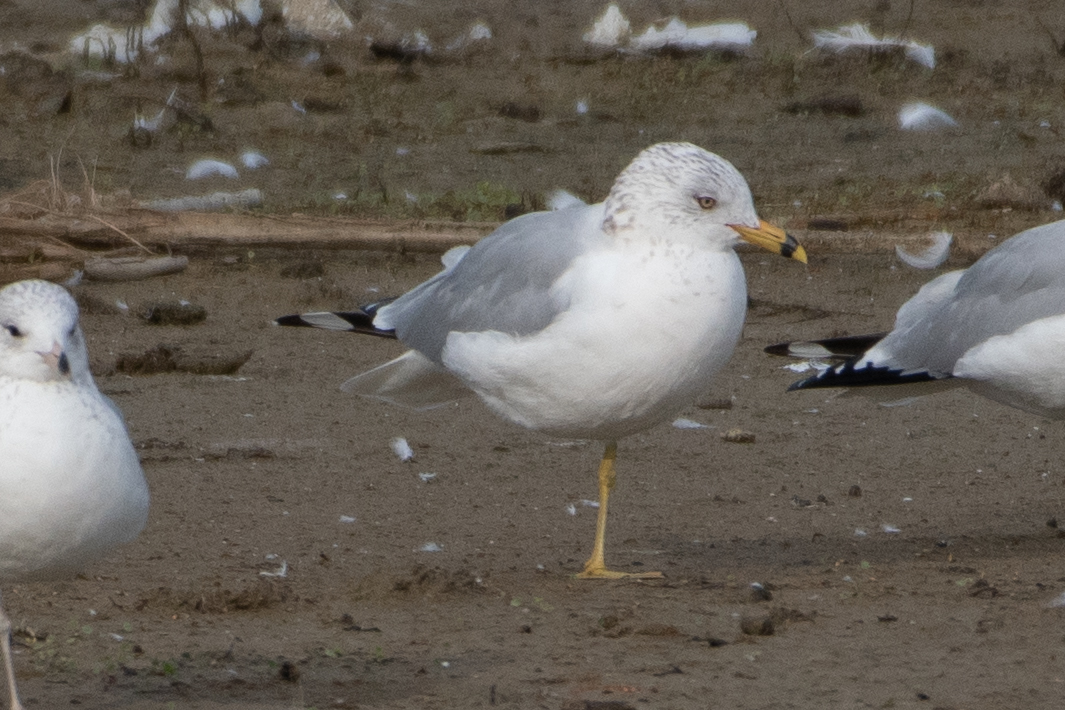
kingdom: Animalia
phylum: Chordata
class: Aves
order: Charadriiformes
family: Laridae
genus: Larus
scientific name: Larus delawarensis
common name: Ring-billed gull
